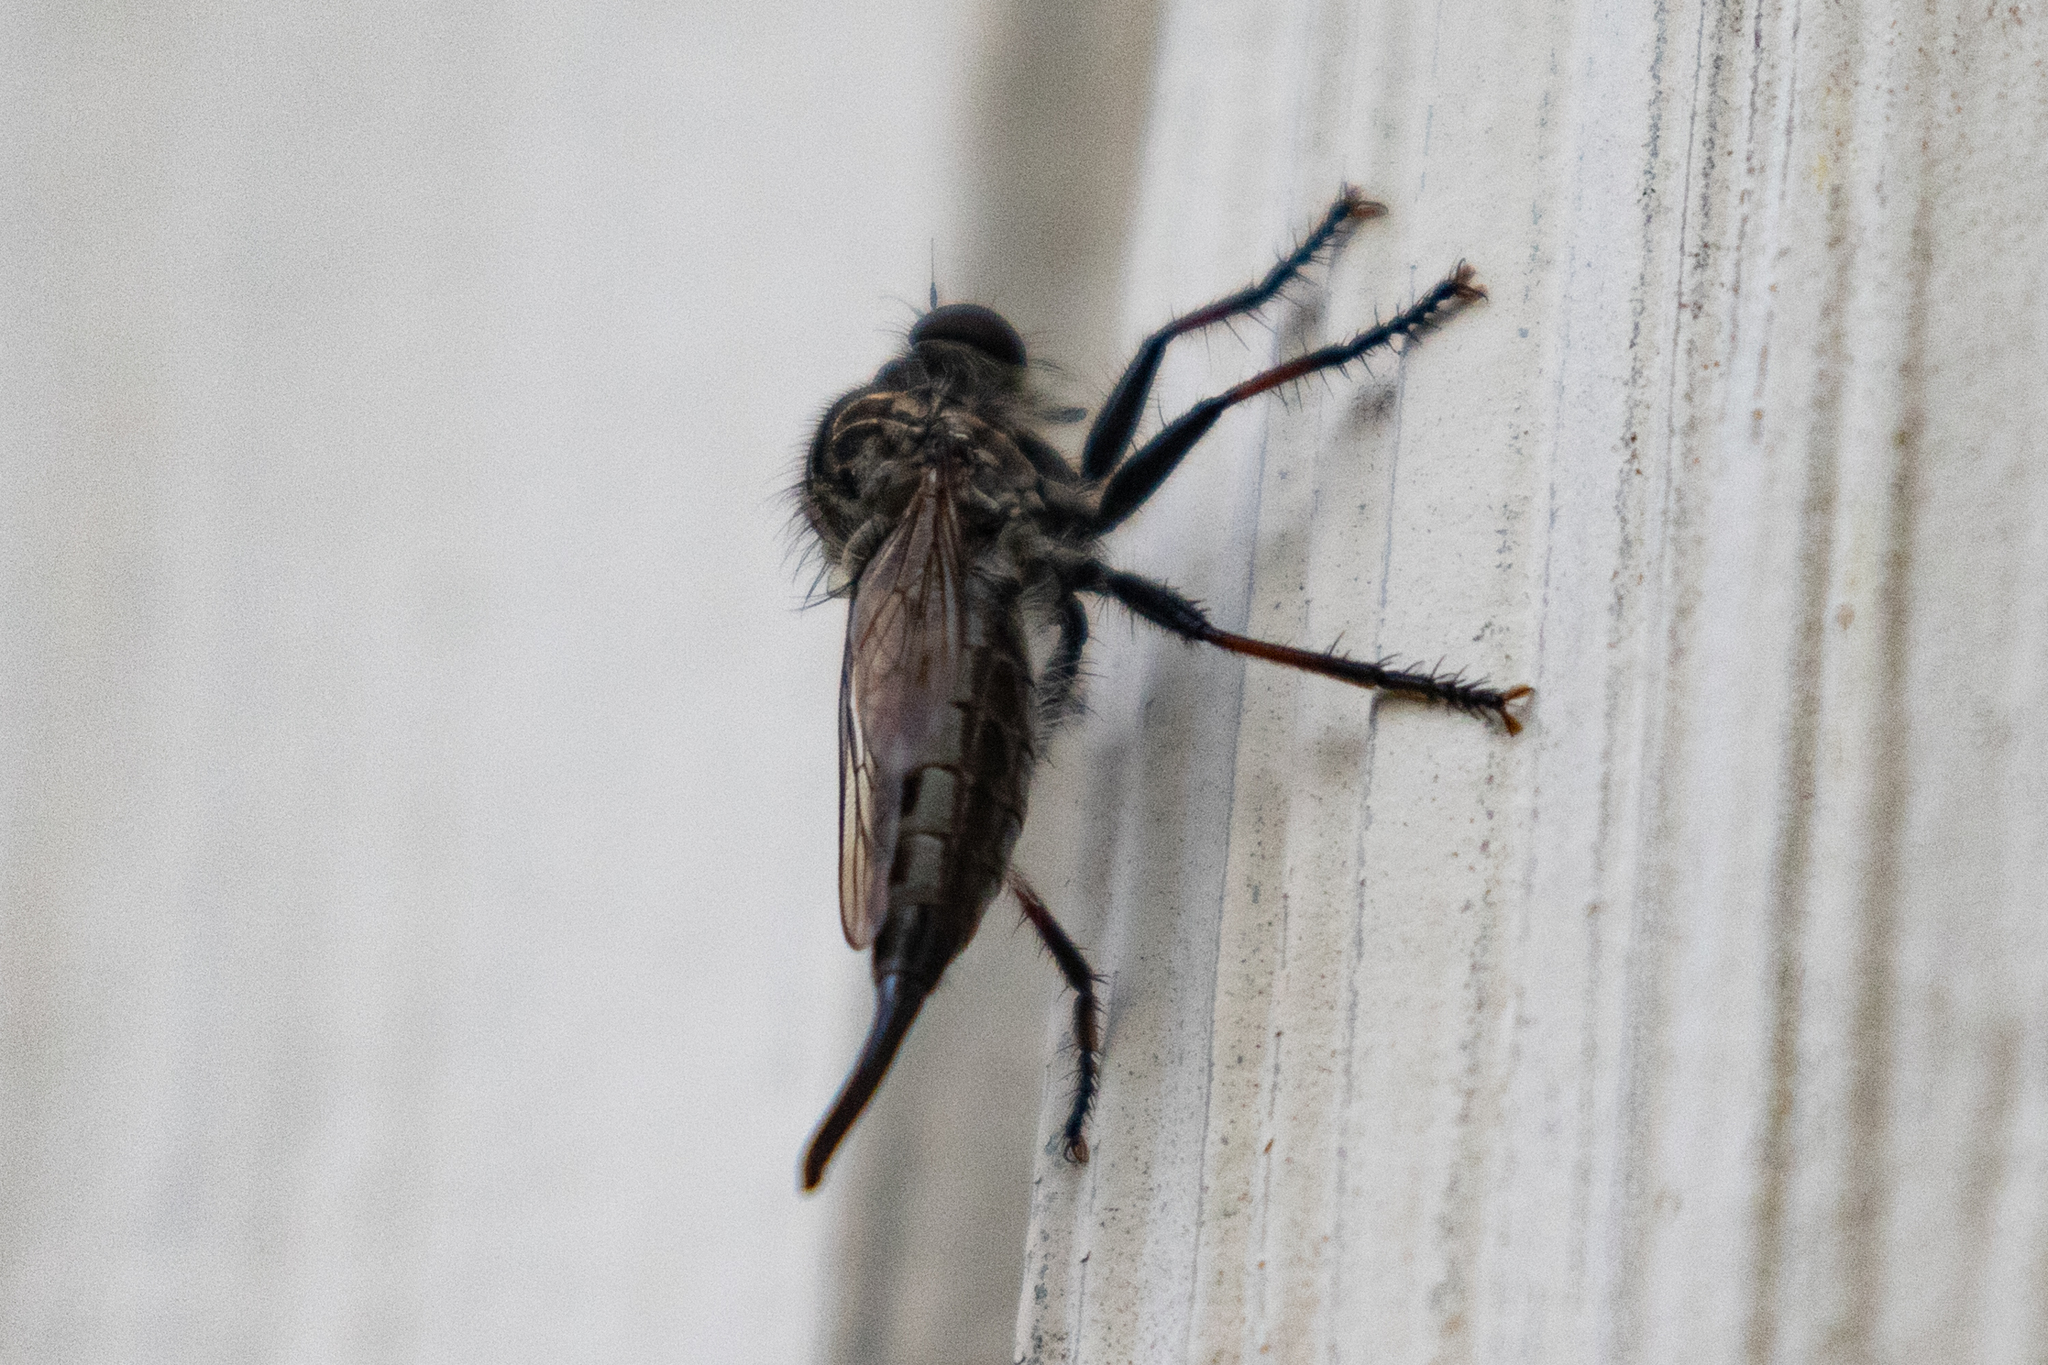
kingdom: Animalia
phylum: Arthropoda
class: Insecta
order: Diptera
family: Asilidae
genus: Efferia
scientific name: Efferia aestuans
